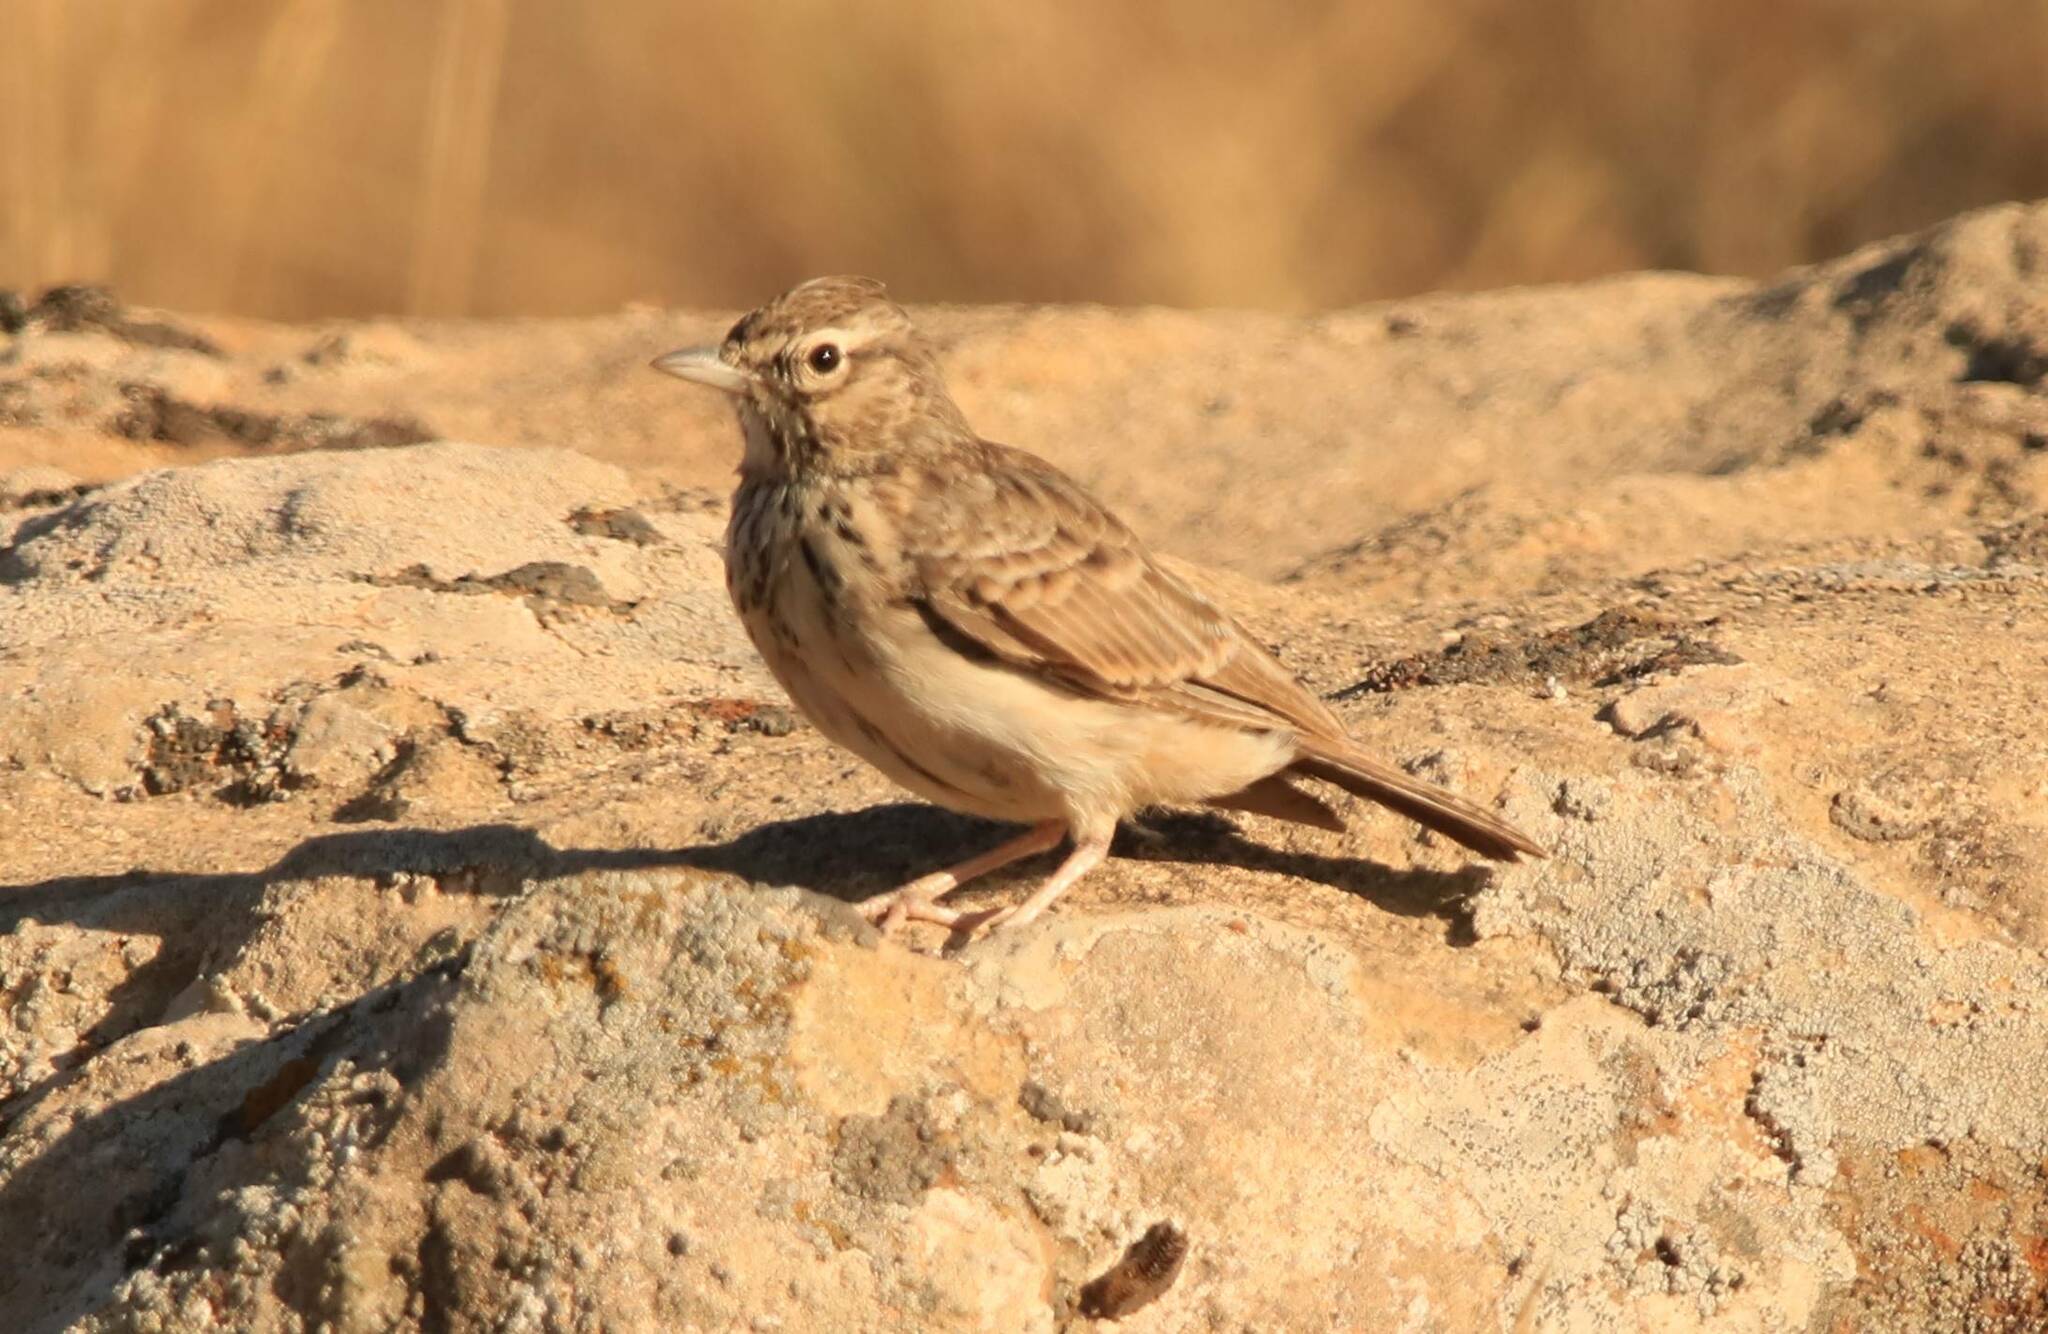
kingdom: Animalia
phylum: Chordata
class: Aves
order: Passeriformes
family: Alaudidae
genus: Galerida
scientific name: Galerida theklae
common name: Thekla lark
